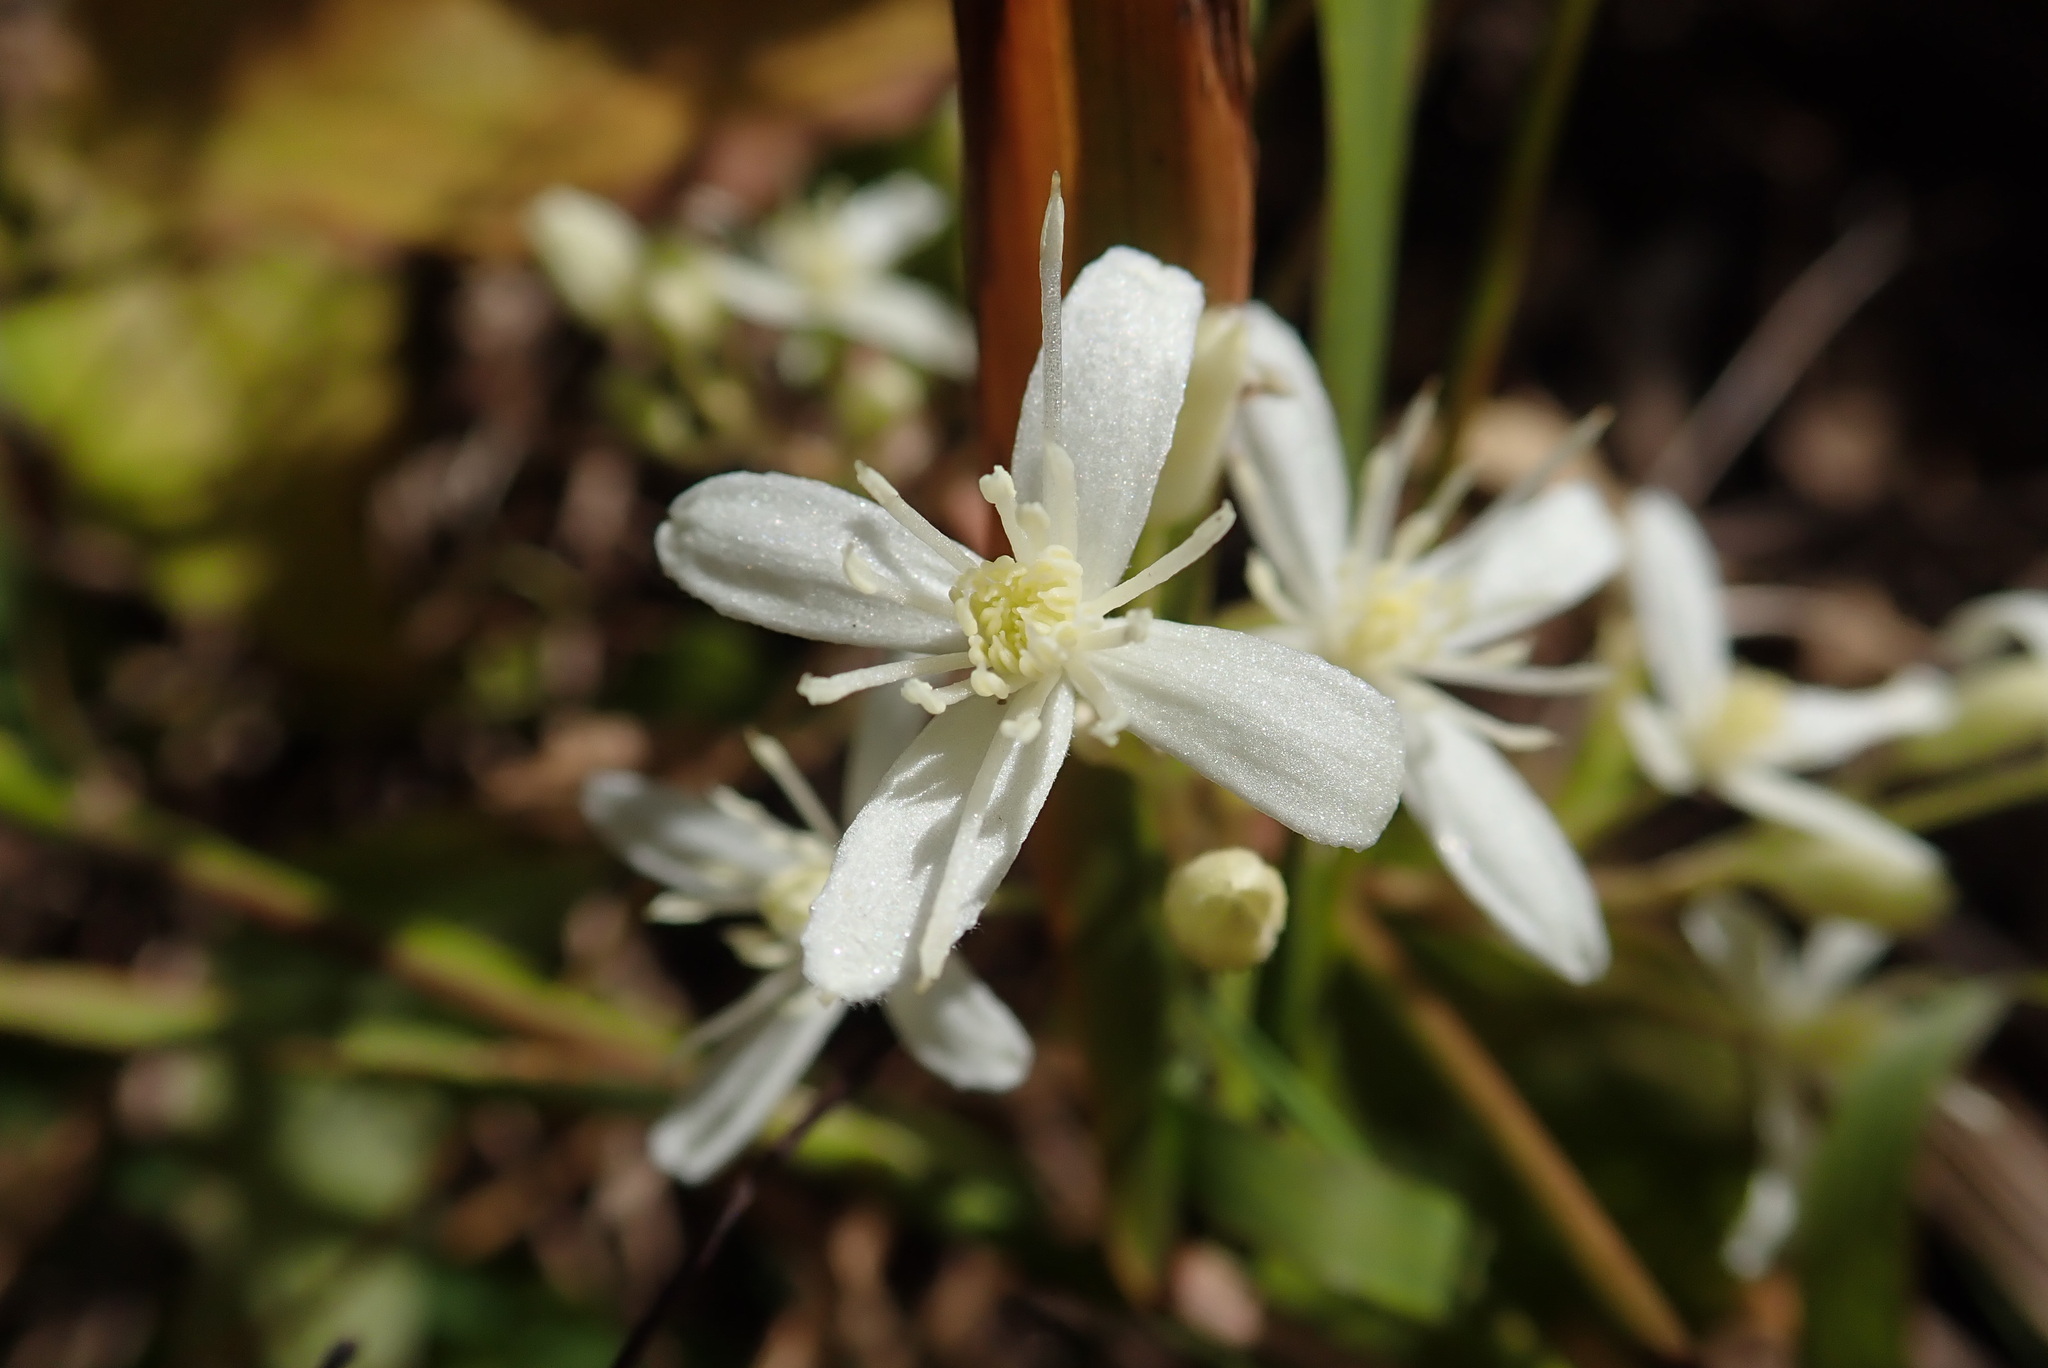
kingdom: Plantae
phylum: Tracheophyta
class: Magnoliopsida
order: Ranunculales
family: Ranunculaceae
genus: Clematis
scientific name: Clematis glycinoides
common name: Forest clematis
